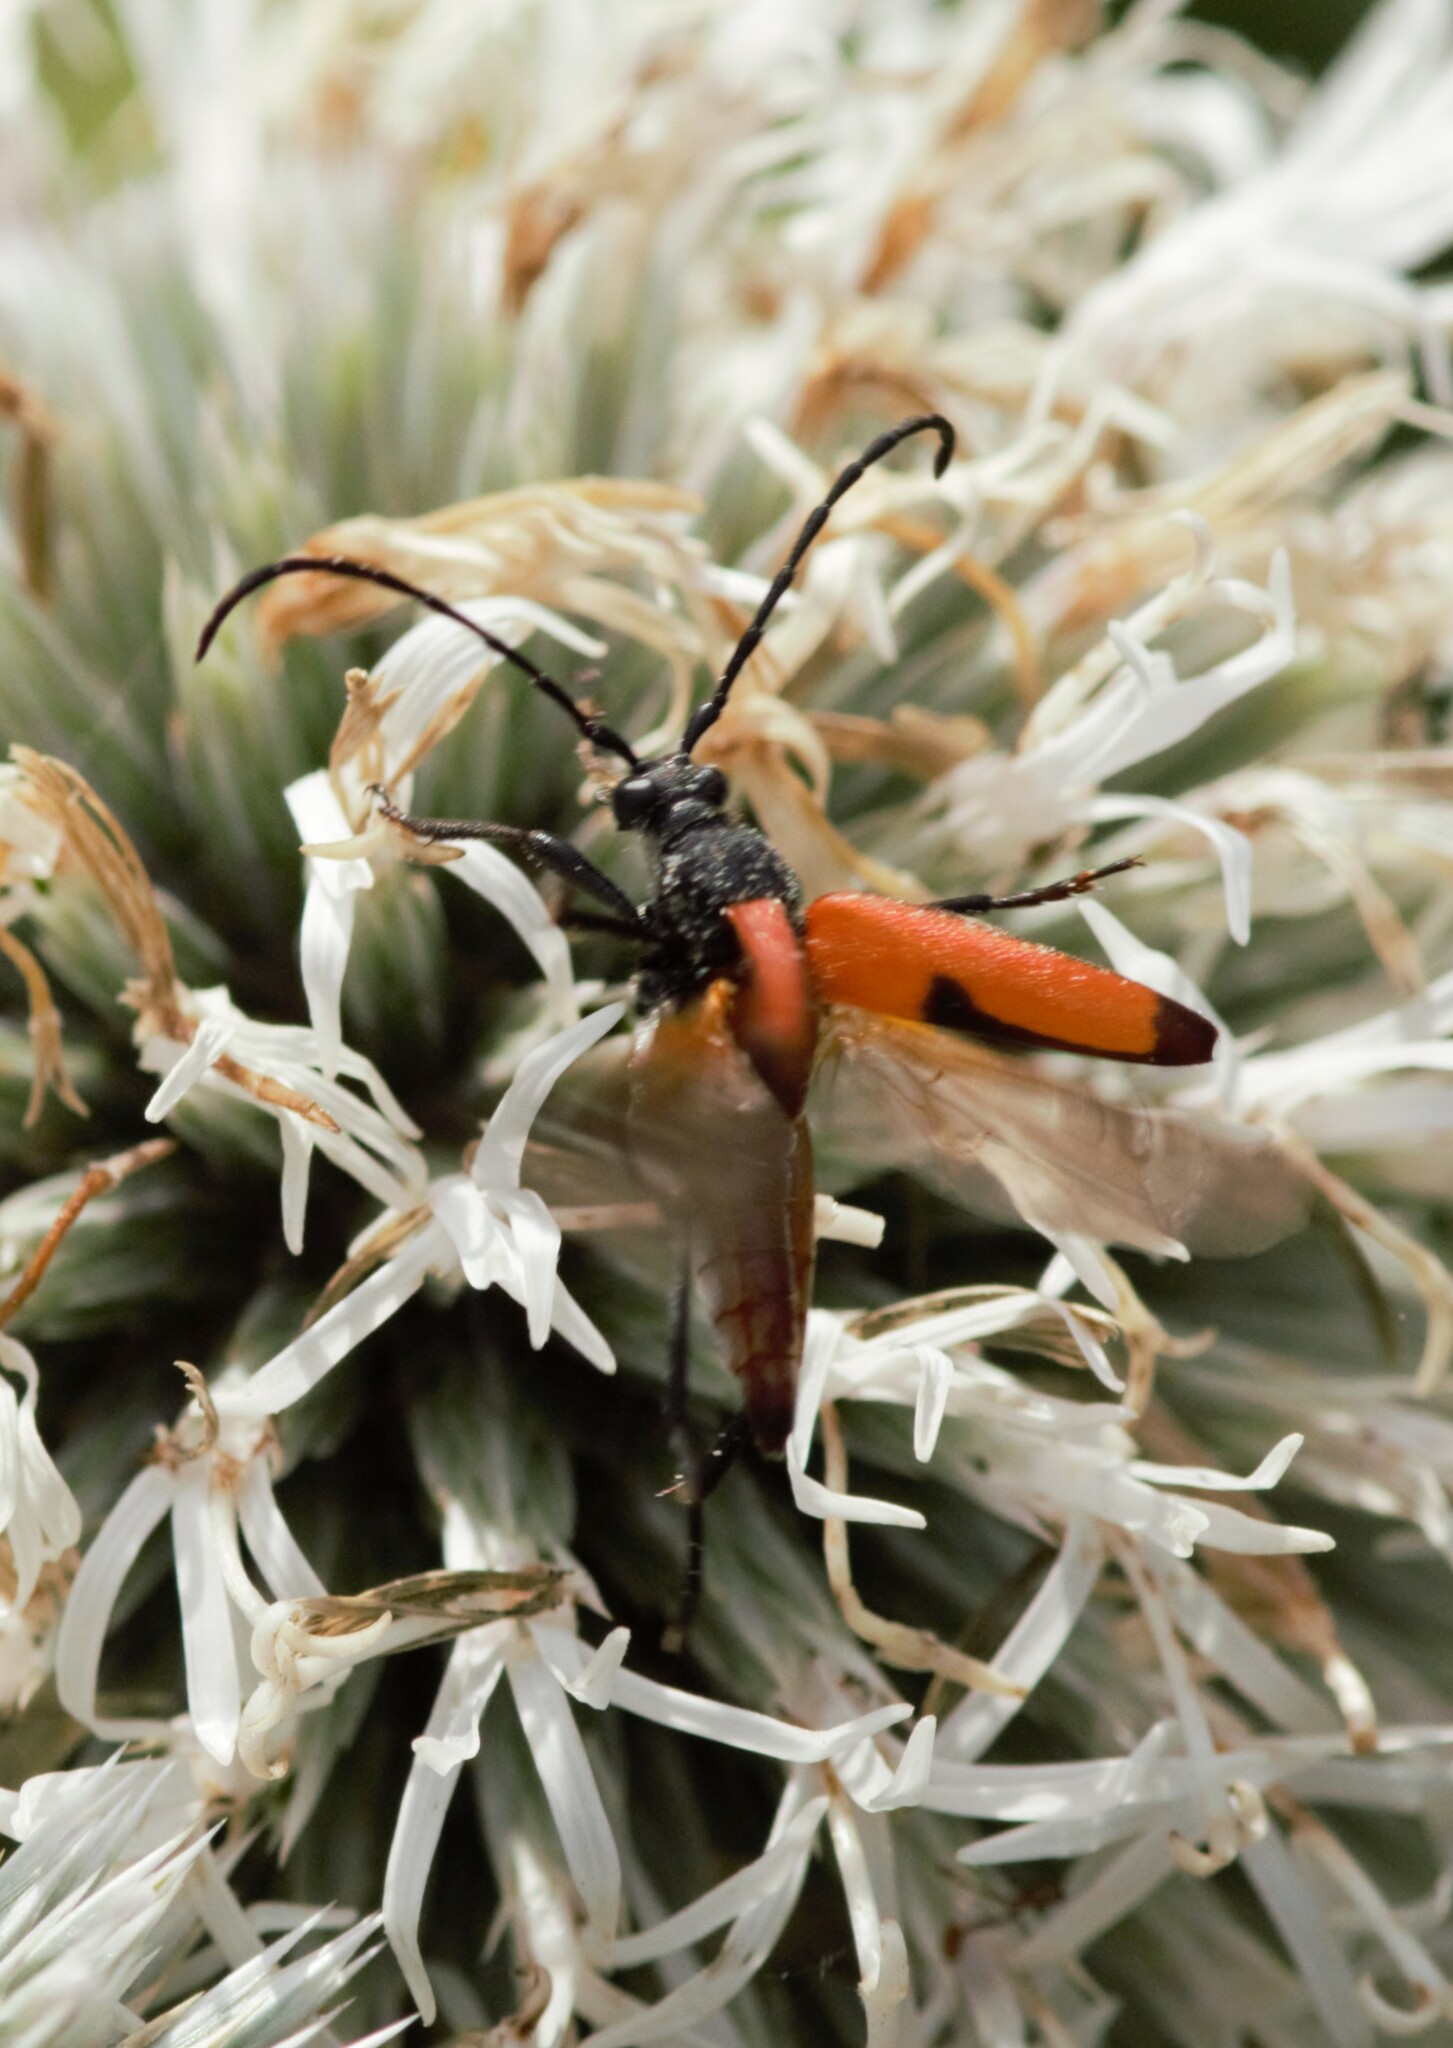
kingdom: Animalia
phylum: Arthropoda
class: Insecta
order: Coleoptera
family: Cerambycidae
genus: Stictoleptura
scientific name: Stictoleptura cordigera
